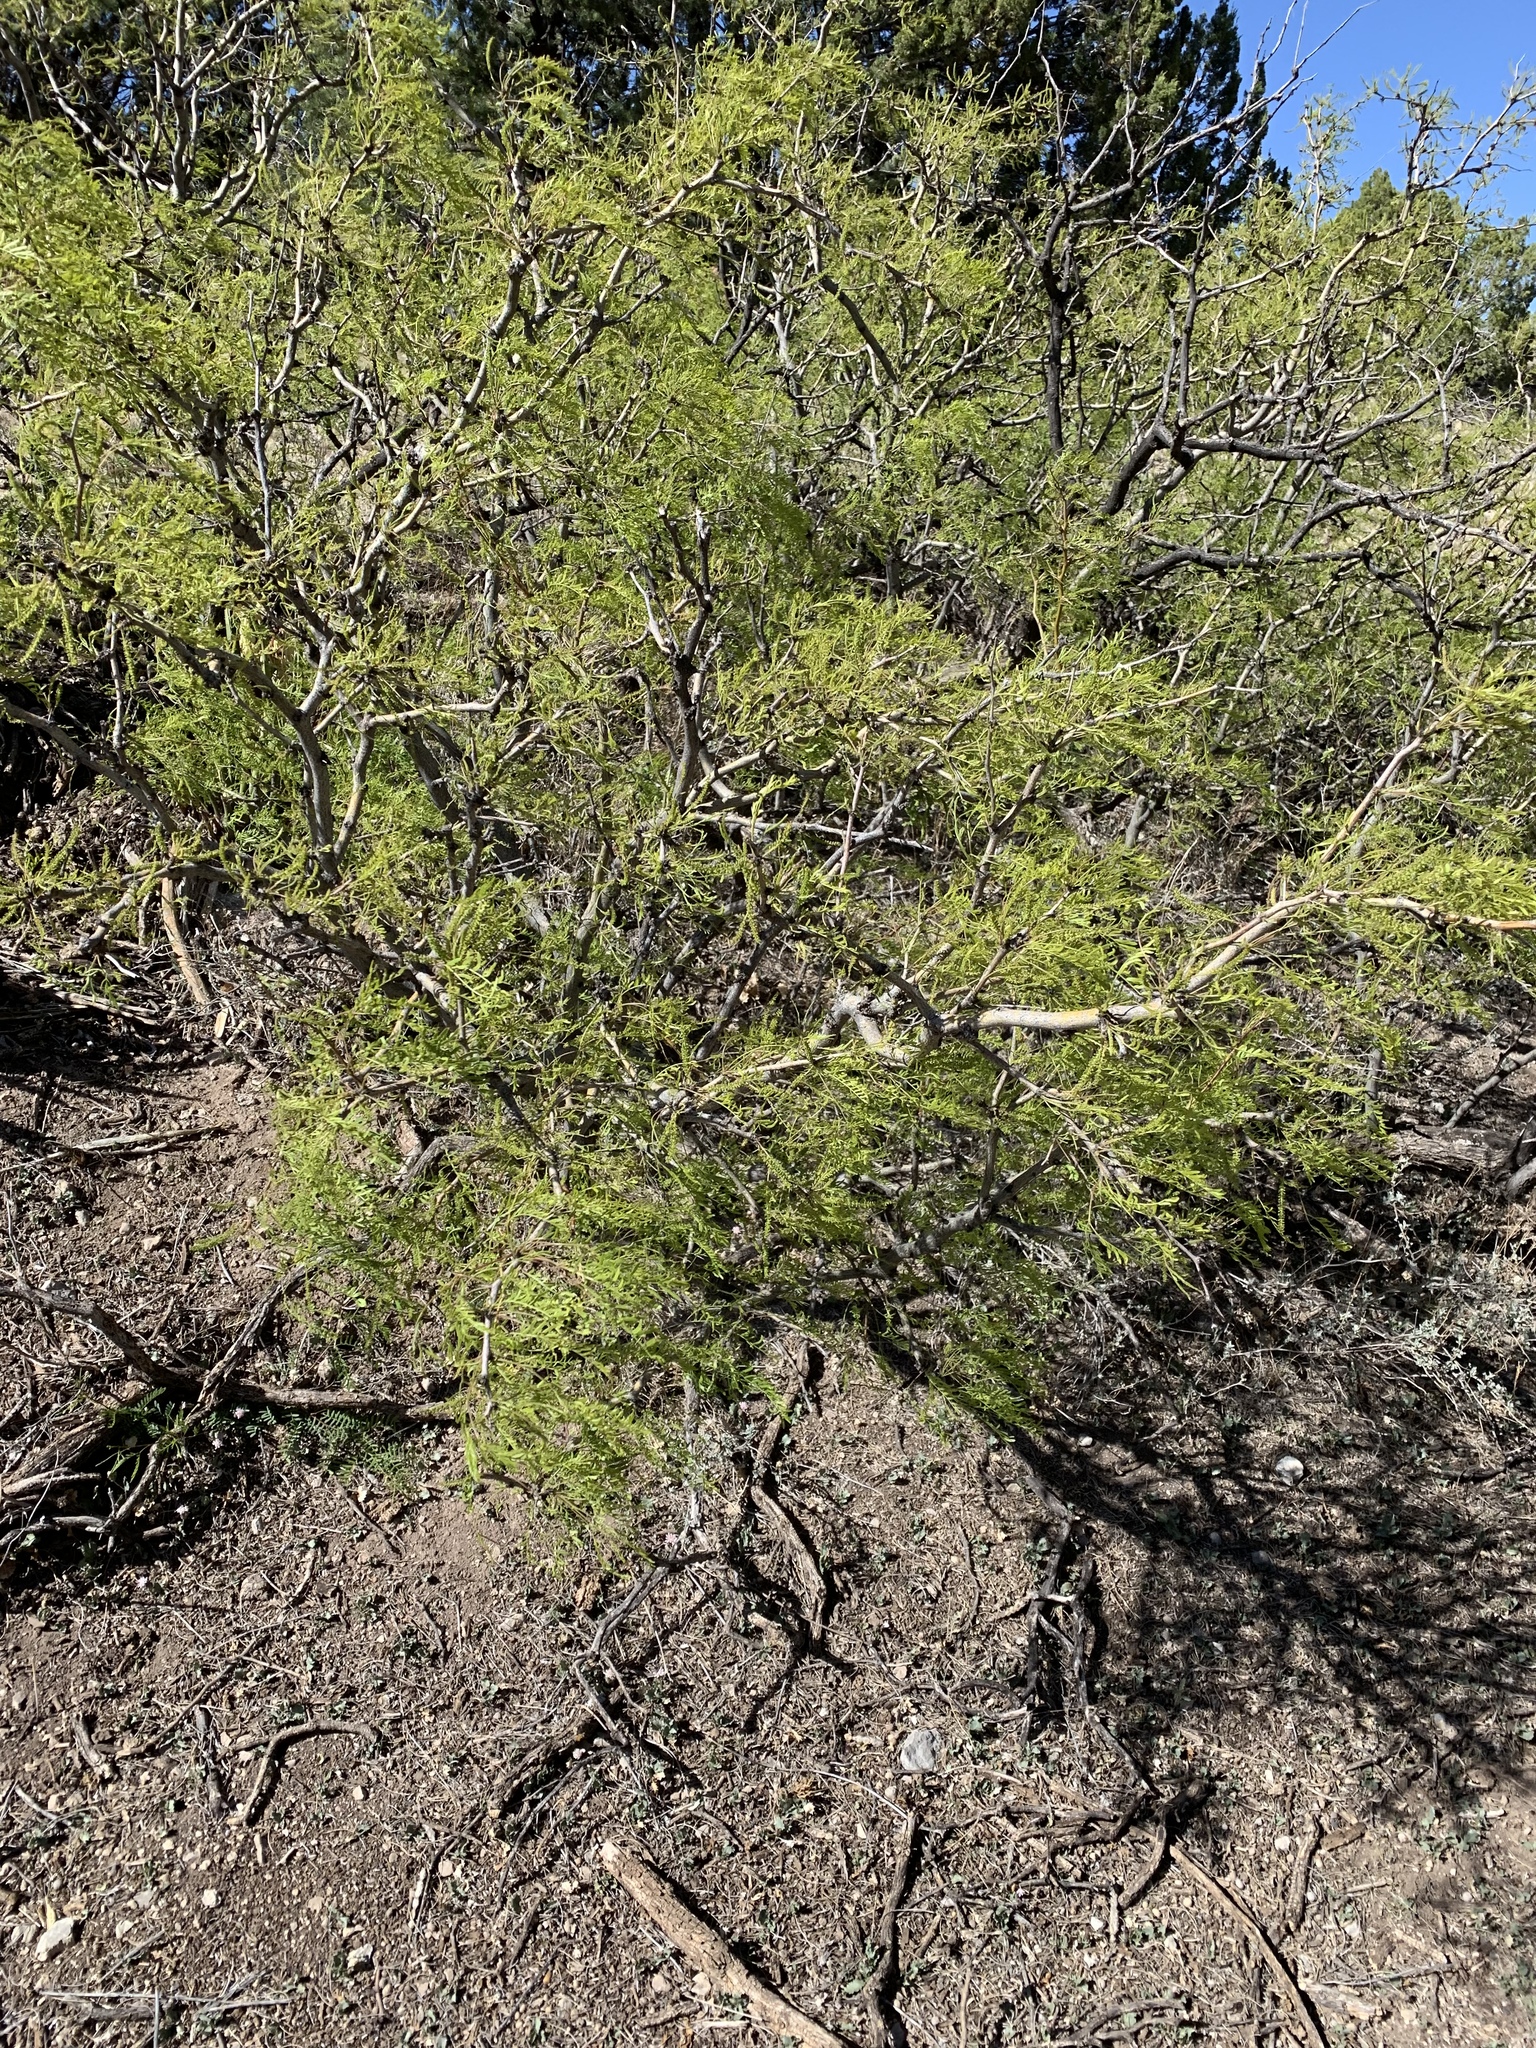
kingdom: Plantae
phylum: Tracheophyta
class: Magnoliopsida
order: Fabales
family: Fabaceae
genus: Prosopis
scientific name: Prosopis glandulosa
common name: Honey mesquite
